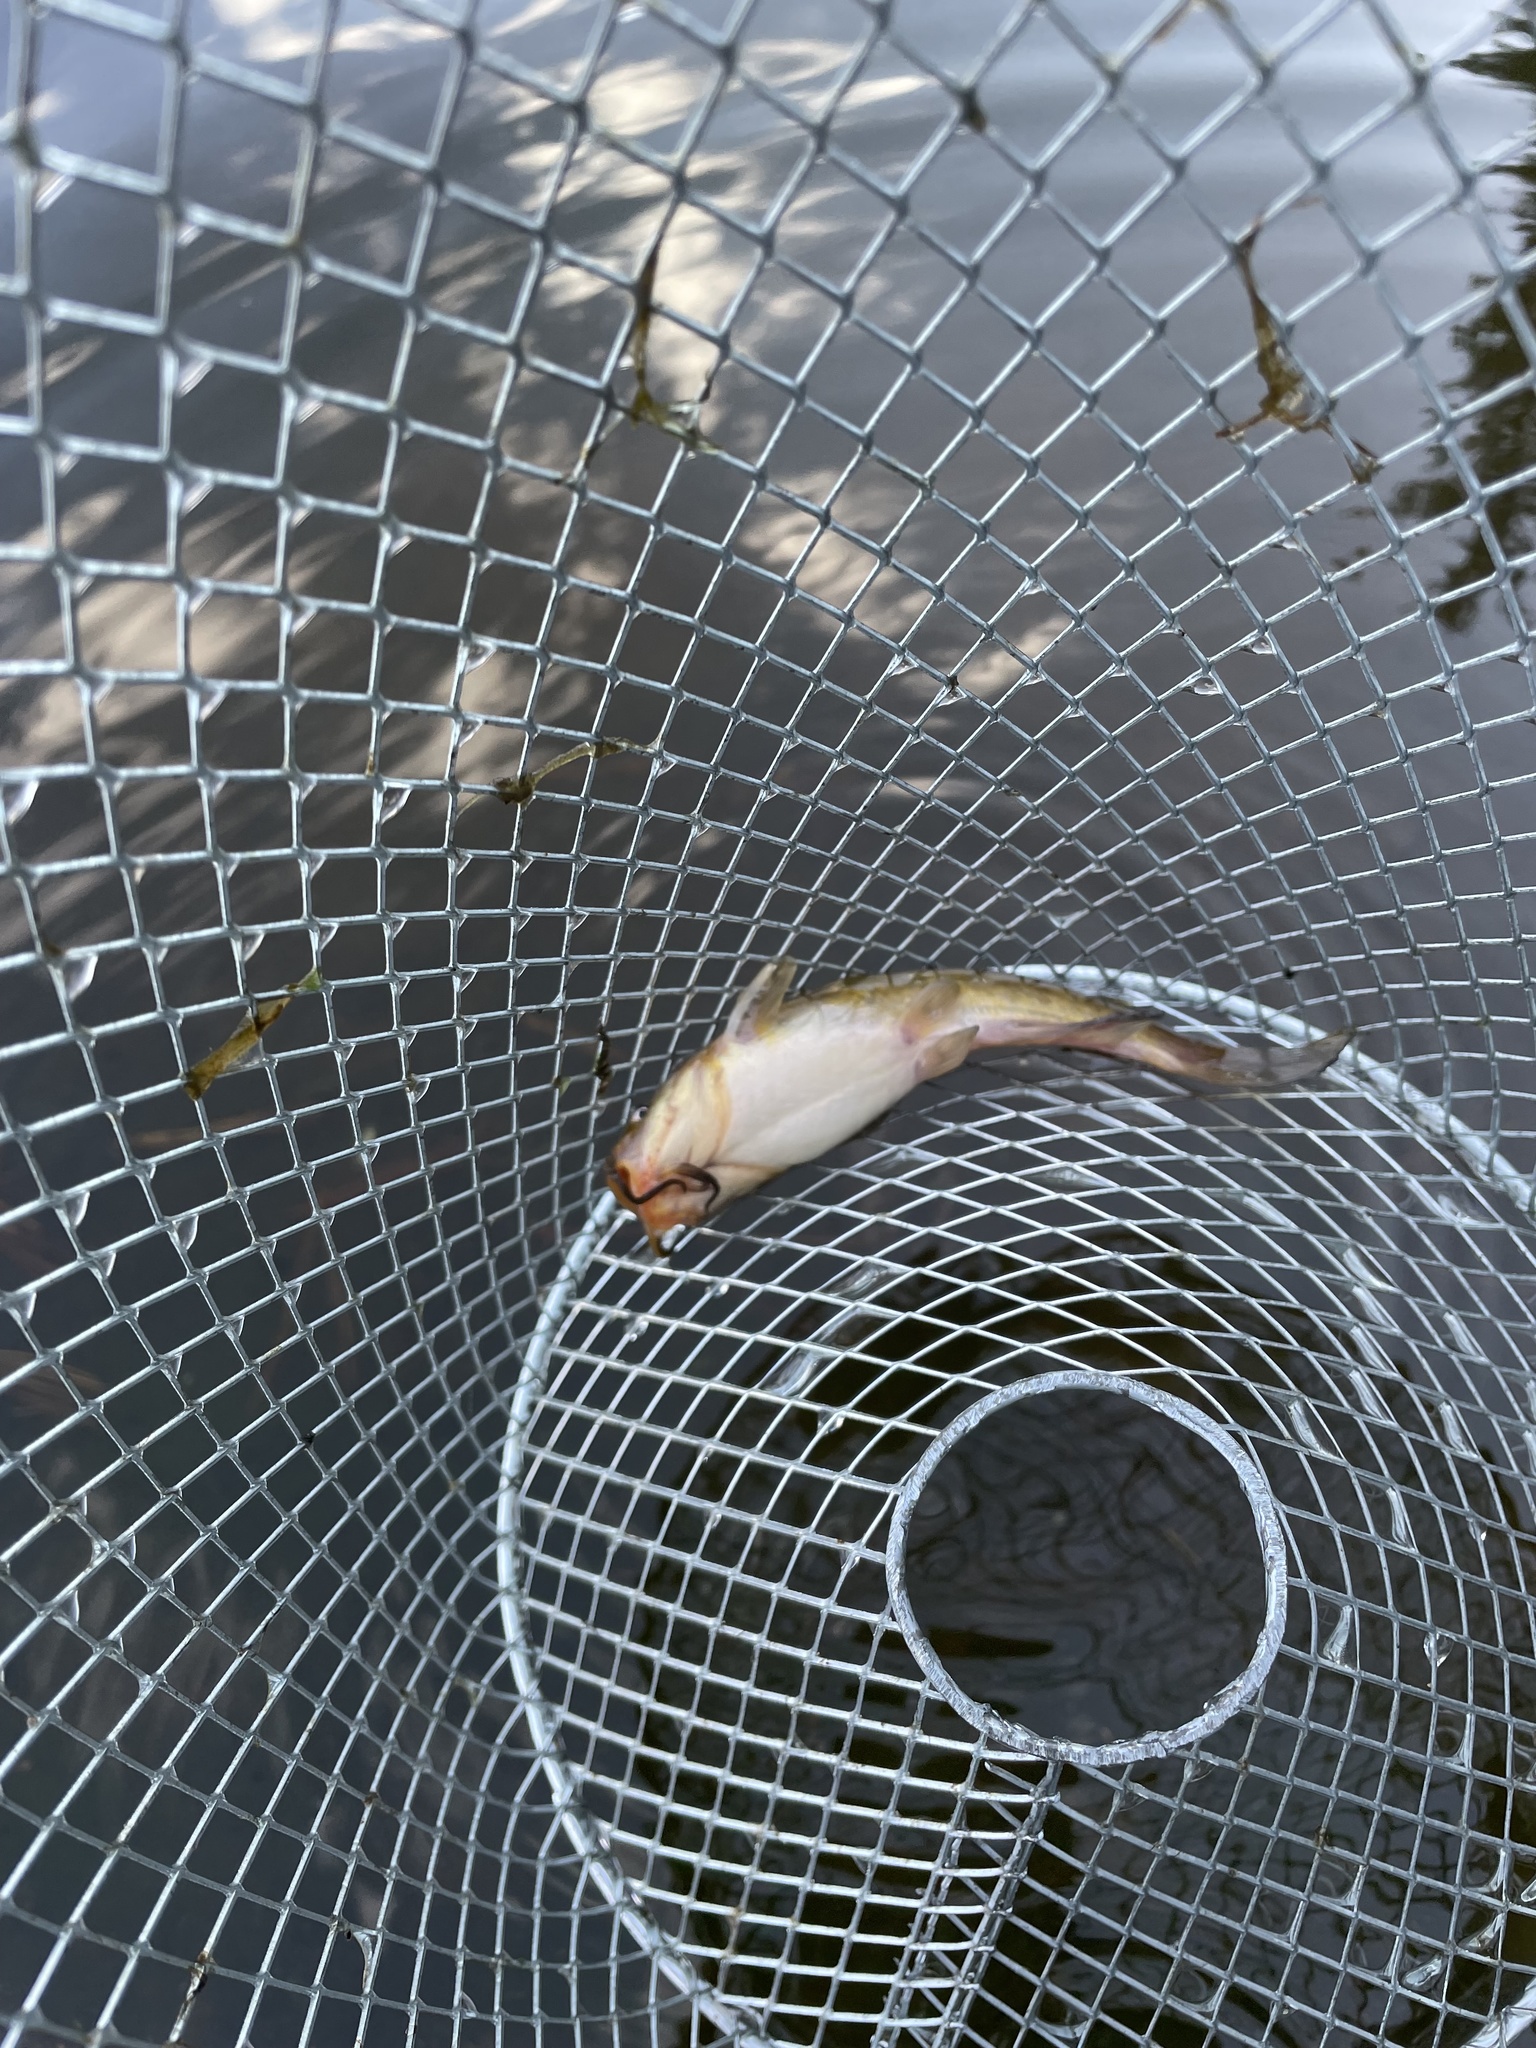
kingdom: Animalia
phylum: Chordata
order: Siluriformes
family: Ictaluridae
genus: Ameiurus
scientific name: Ameiurus nebulosus
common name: Brown bullhead
